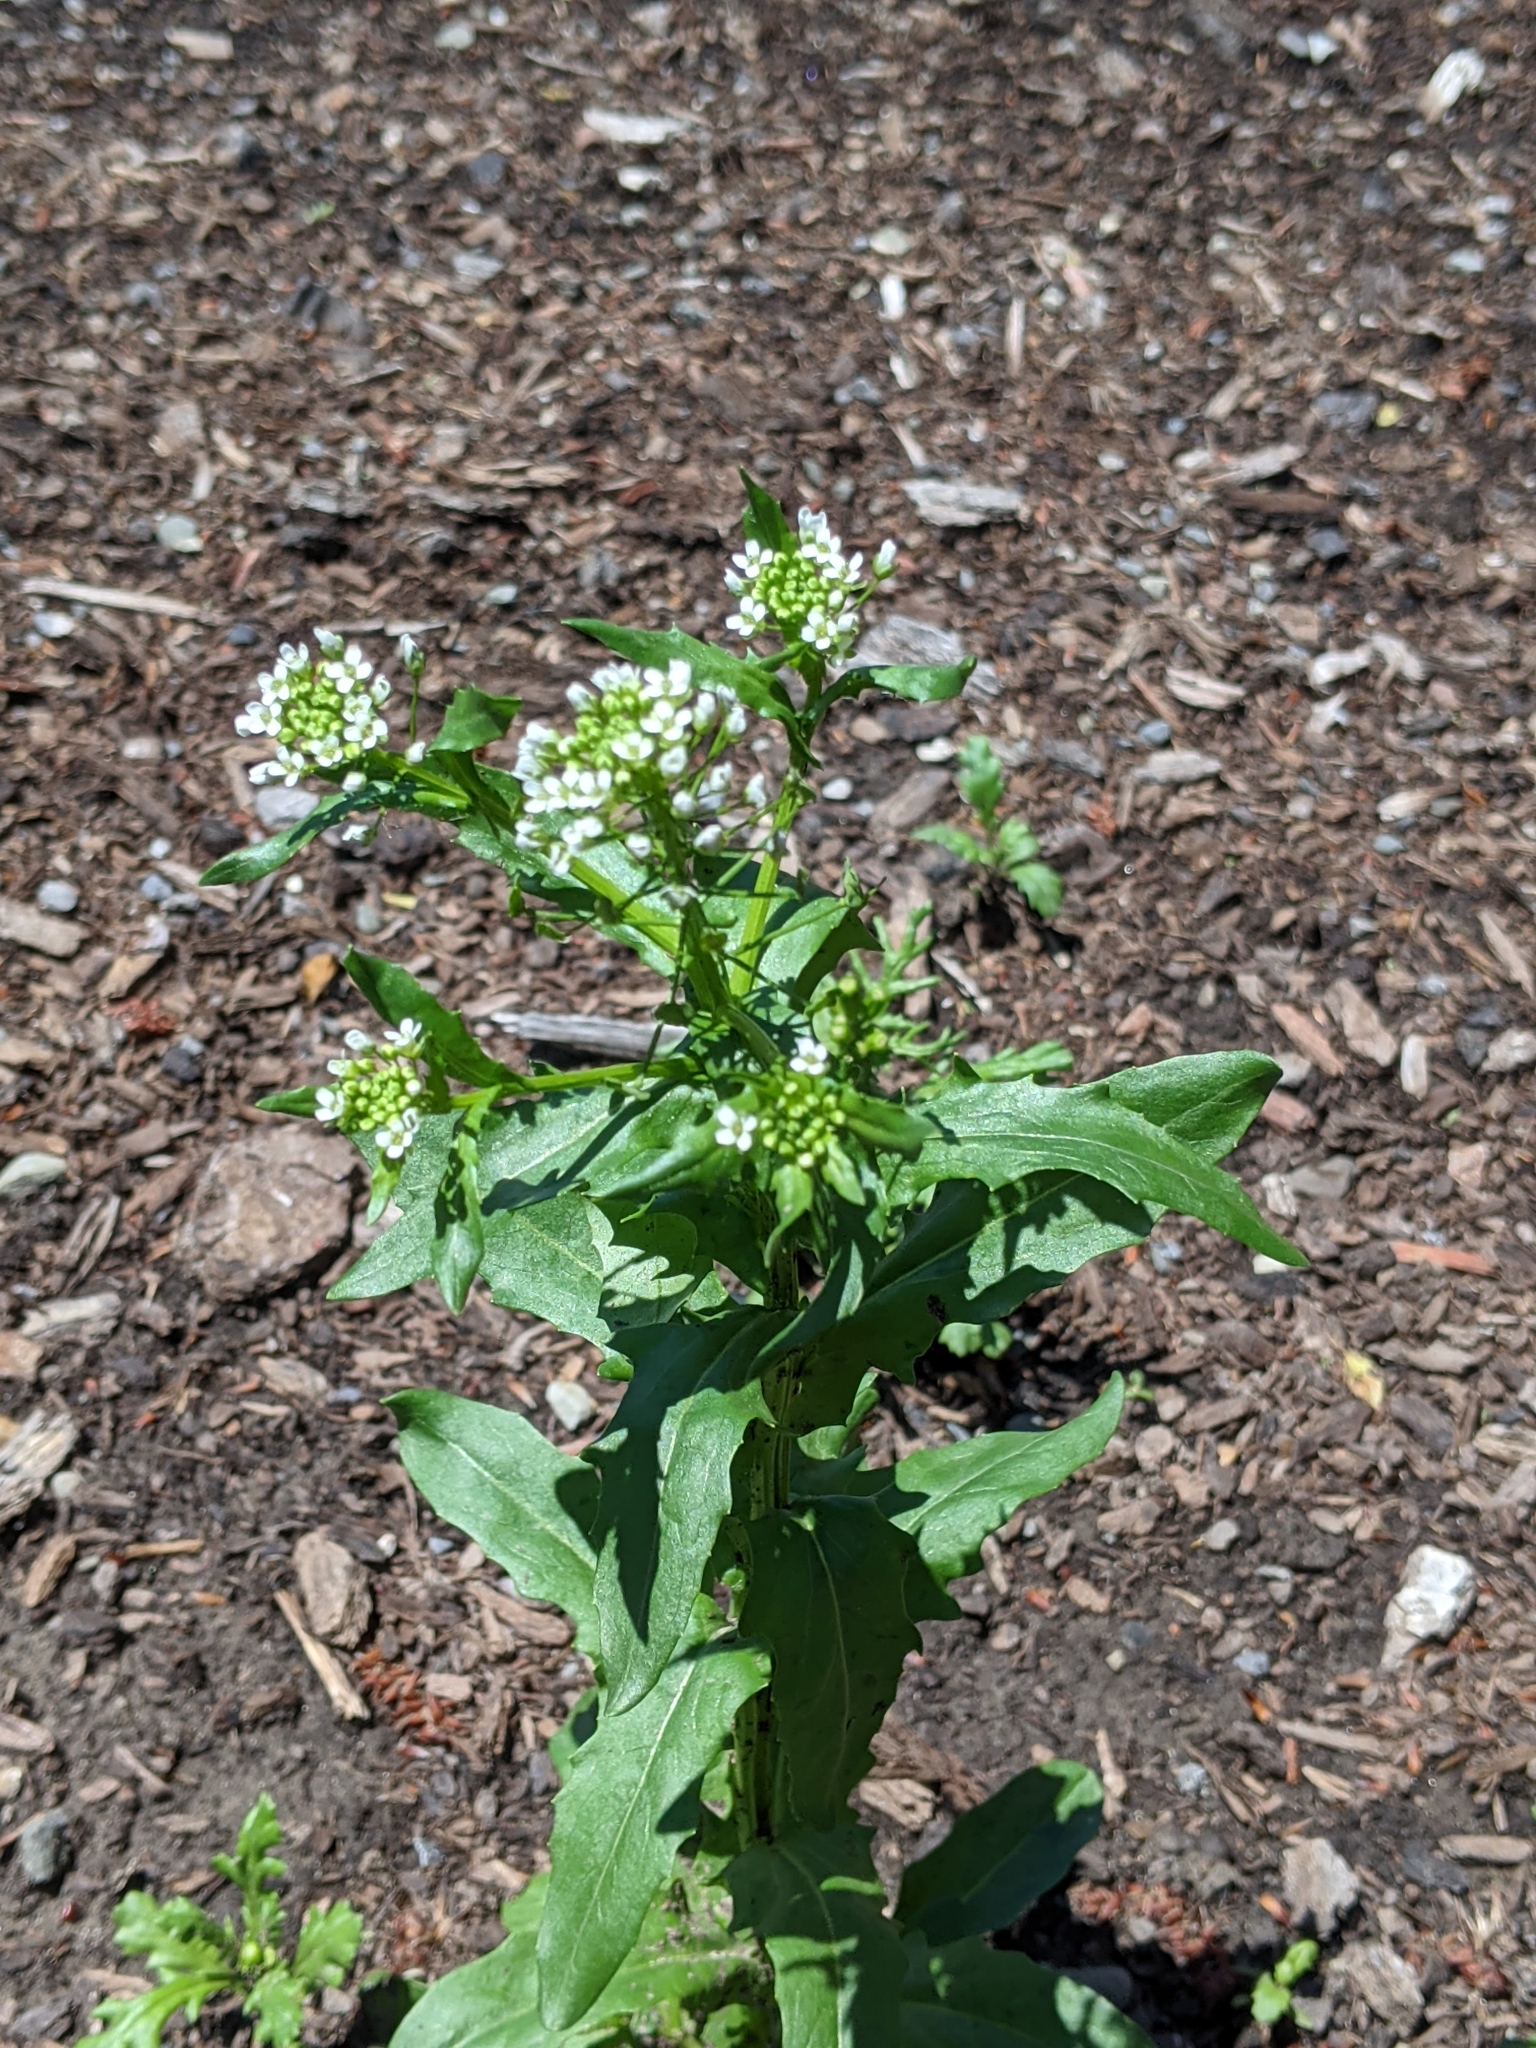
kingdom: Plantae
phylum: Tracheophyta
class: Magnoliopsida
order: Brassicales
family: Brassicaceae
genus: Thlaspi
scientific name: Thlaspi arvense
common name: Field pennycress
